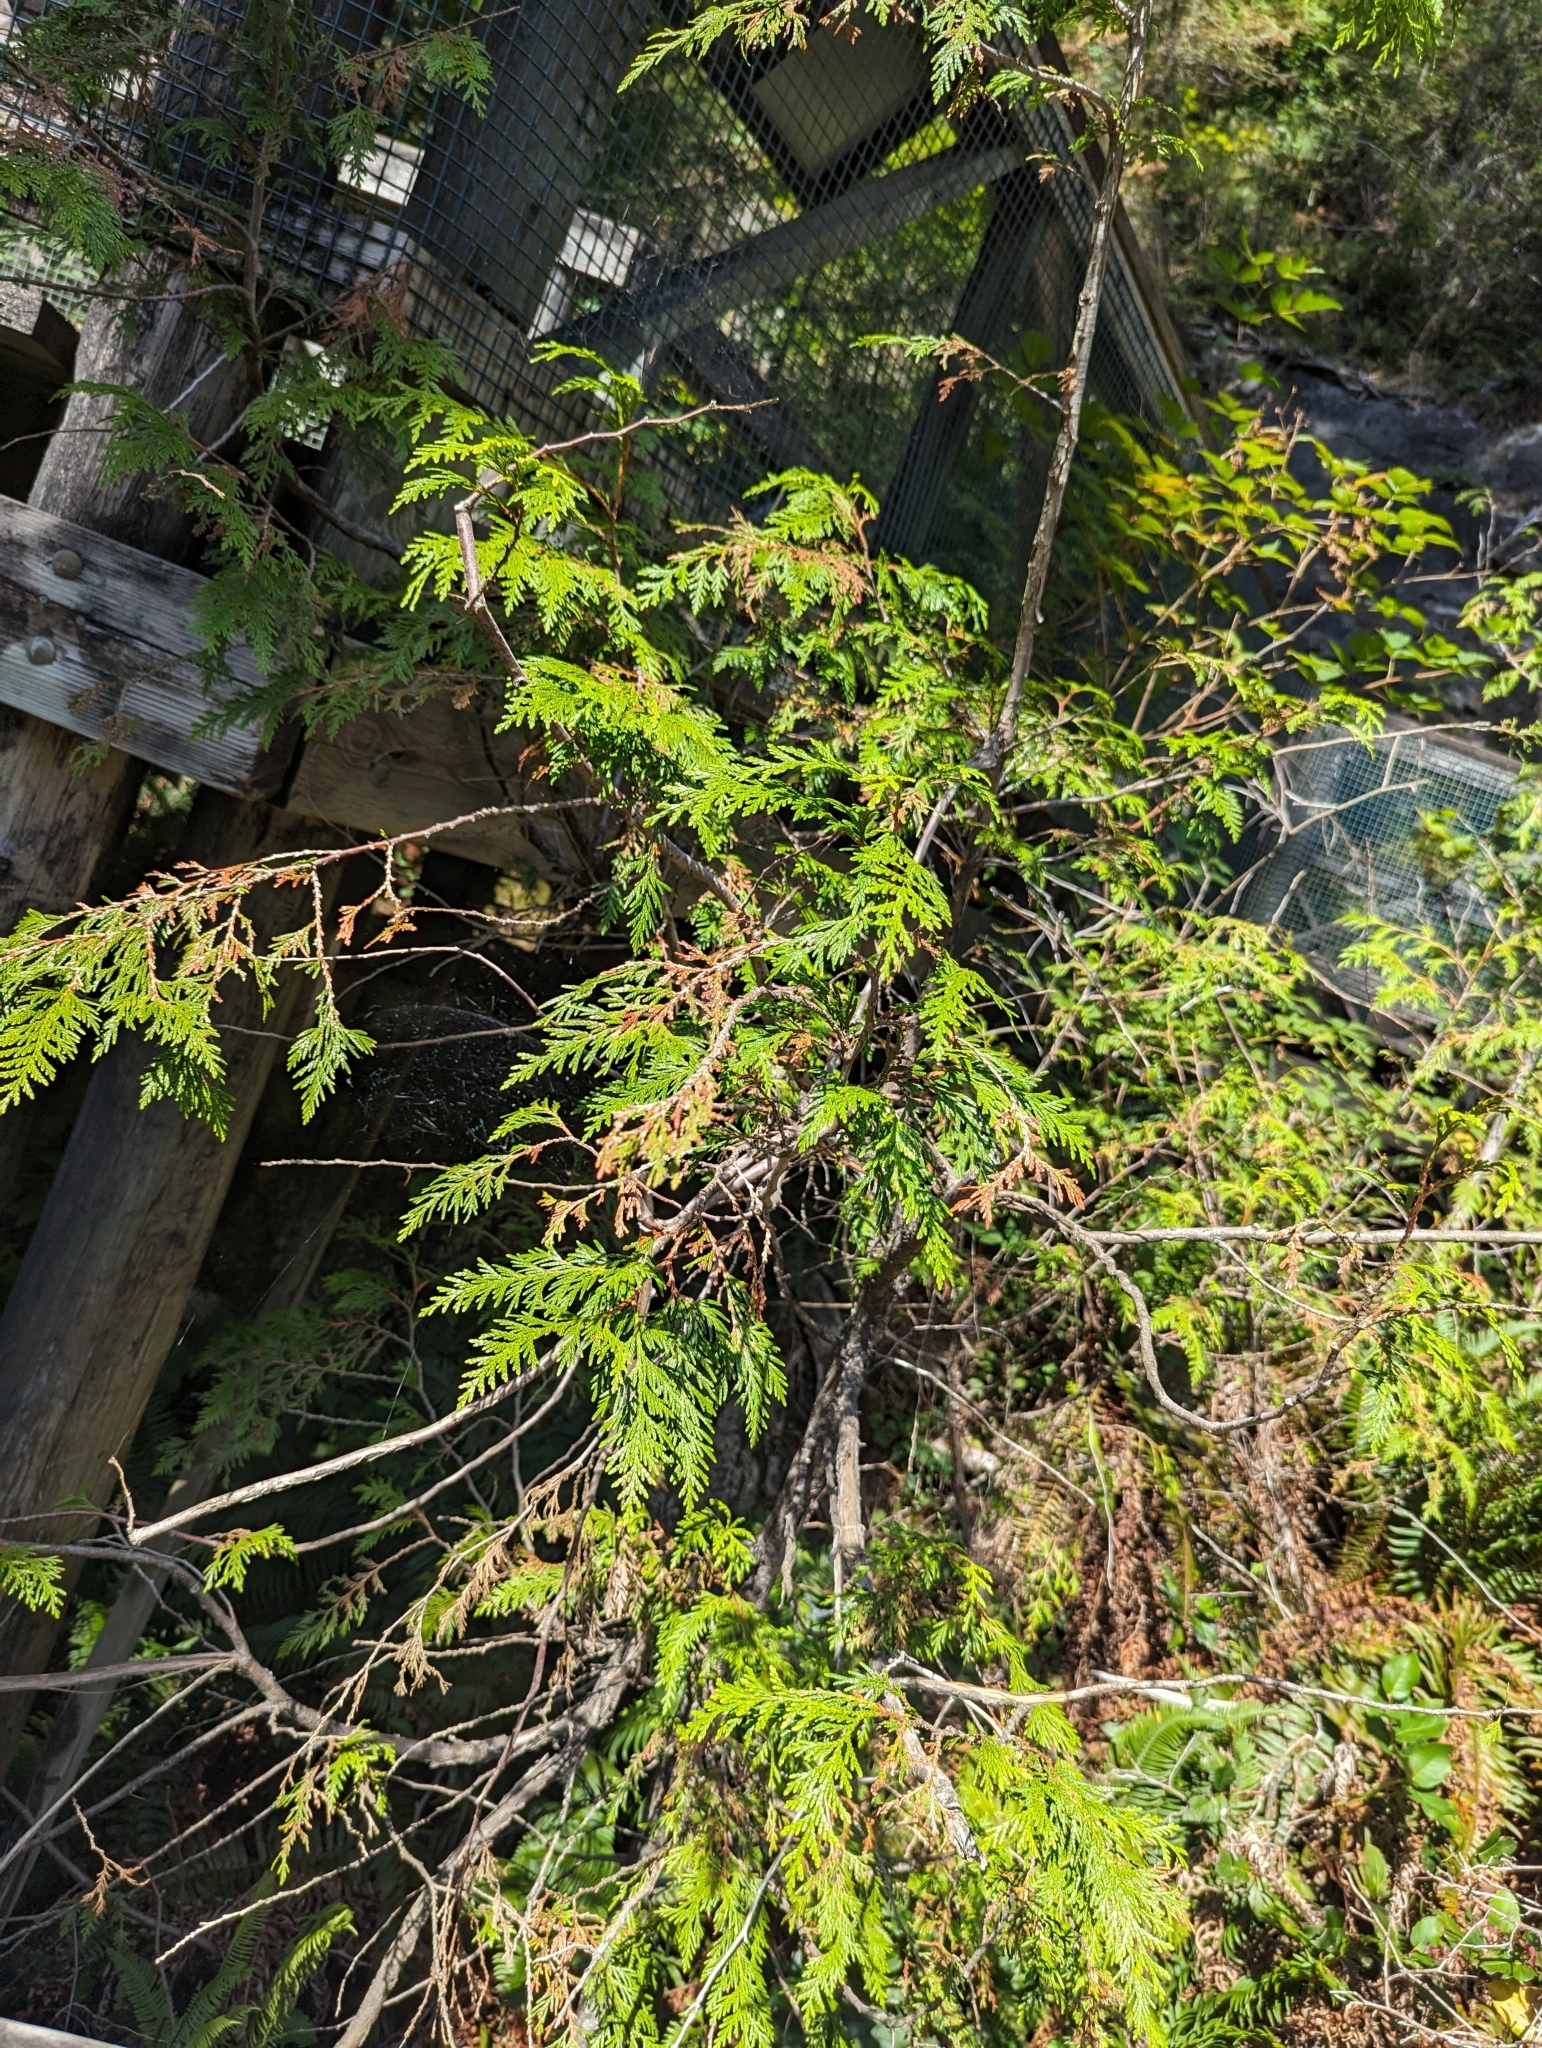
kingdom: Plantae
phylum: Tracheophyta
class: Pinopsida
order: Pinales
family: Cupressaceae
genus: Thuja
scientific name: Thuja plicata
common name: Western red-cedar
